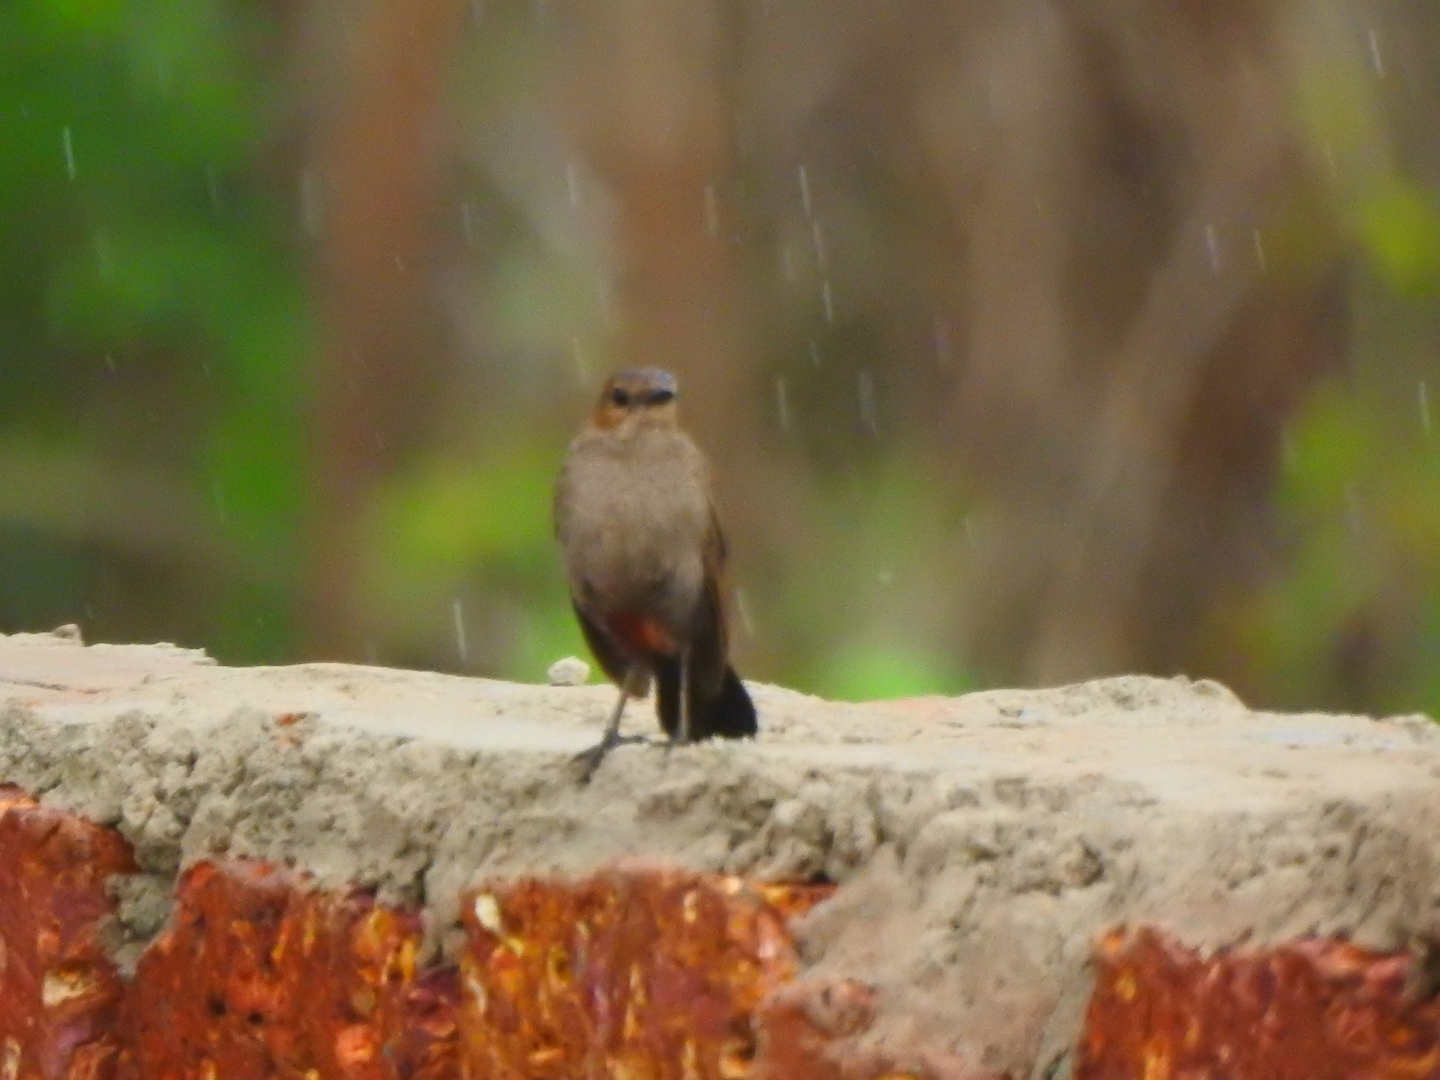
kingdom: Animalia
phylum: Chordata
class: Aves
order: Passeriformes
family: Muscicapidae
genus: Saxicoloides
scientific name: Saxicoloides fulicatus
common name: Indian robin
